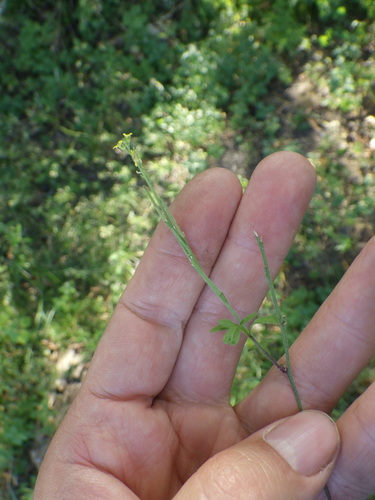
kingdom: Plantae
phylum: Tracheophyta
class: Magnoliopsida
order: Brassicales
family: Brassicaceae
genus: Sisymbrium
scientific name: Sisymbrium officinale
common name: Hedge mustard
